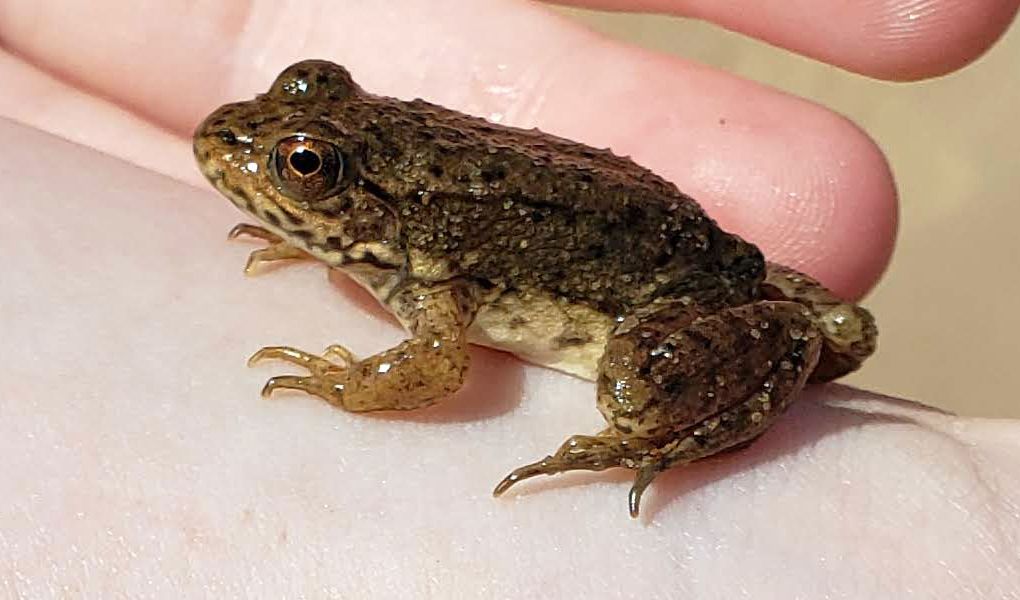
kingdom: Animalia
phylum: Chordata
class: Amphibia
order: Anura
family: Ranidae
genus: Lithobates
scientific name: Lithobates clamitans
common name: Green frog
